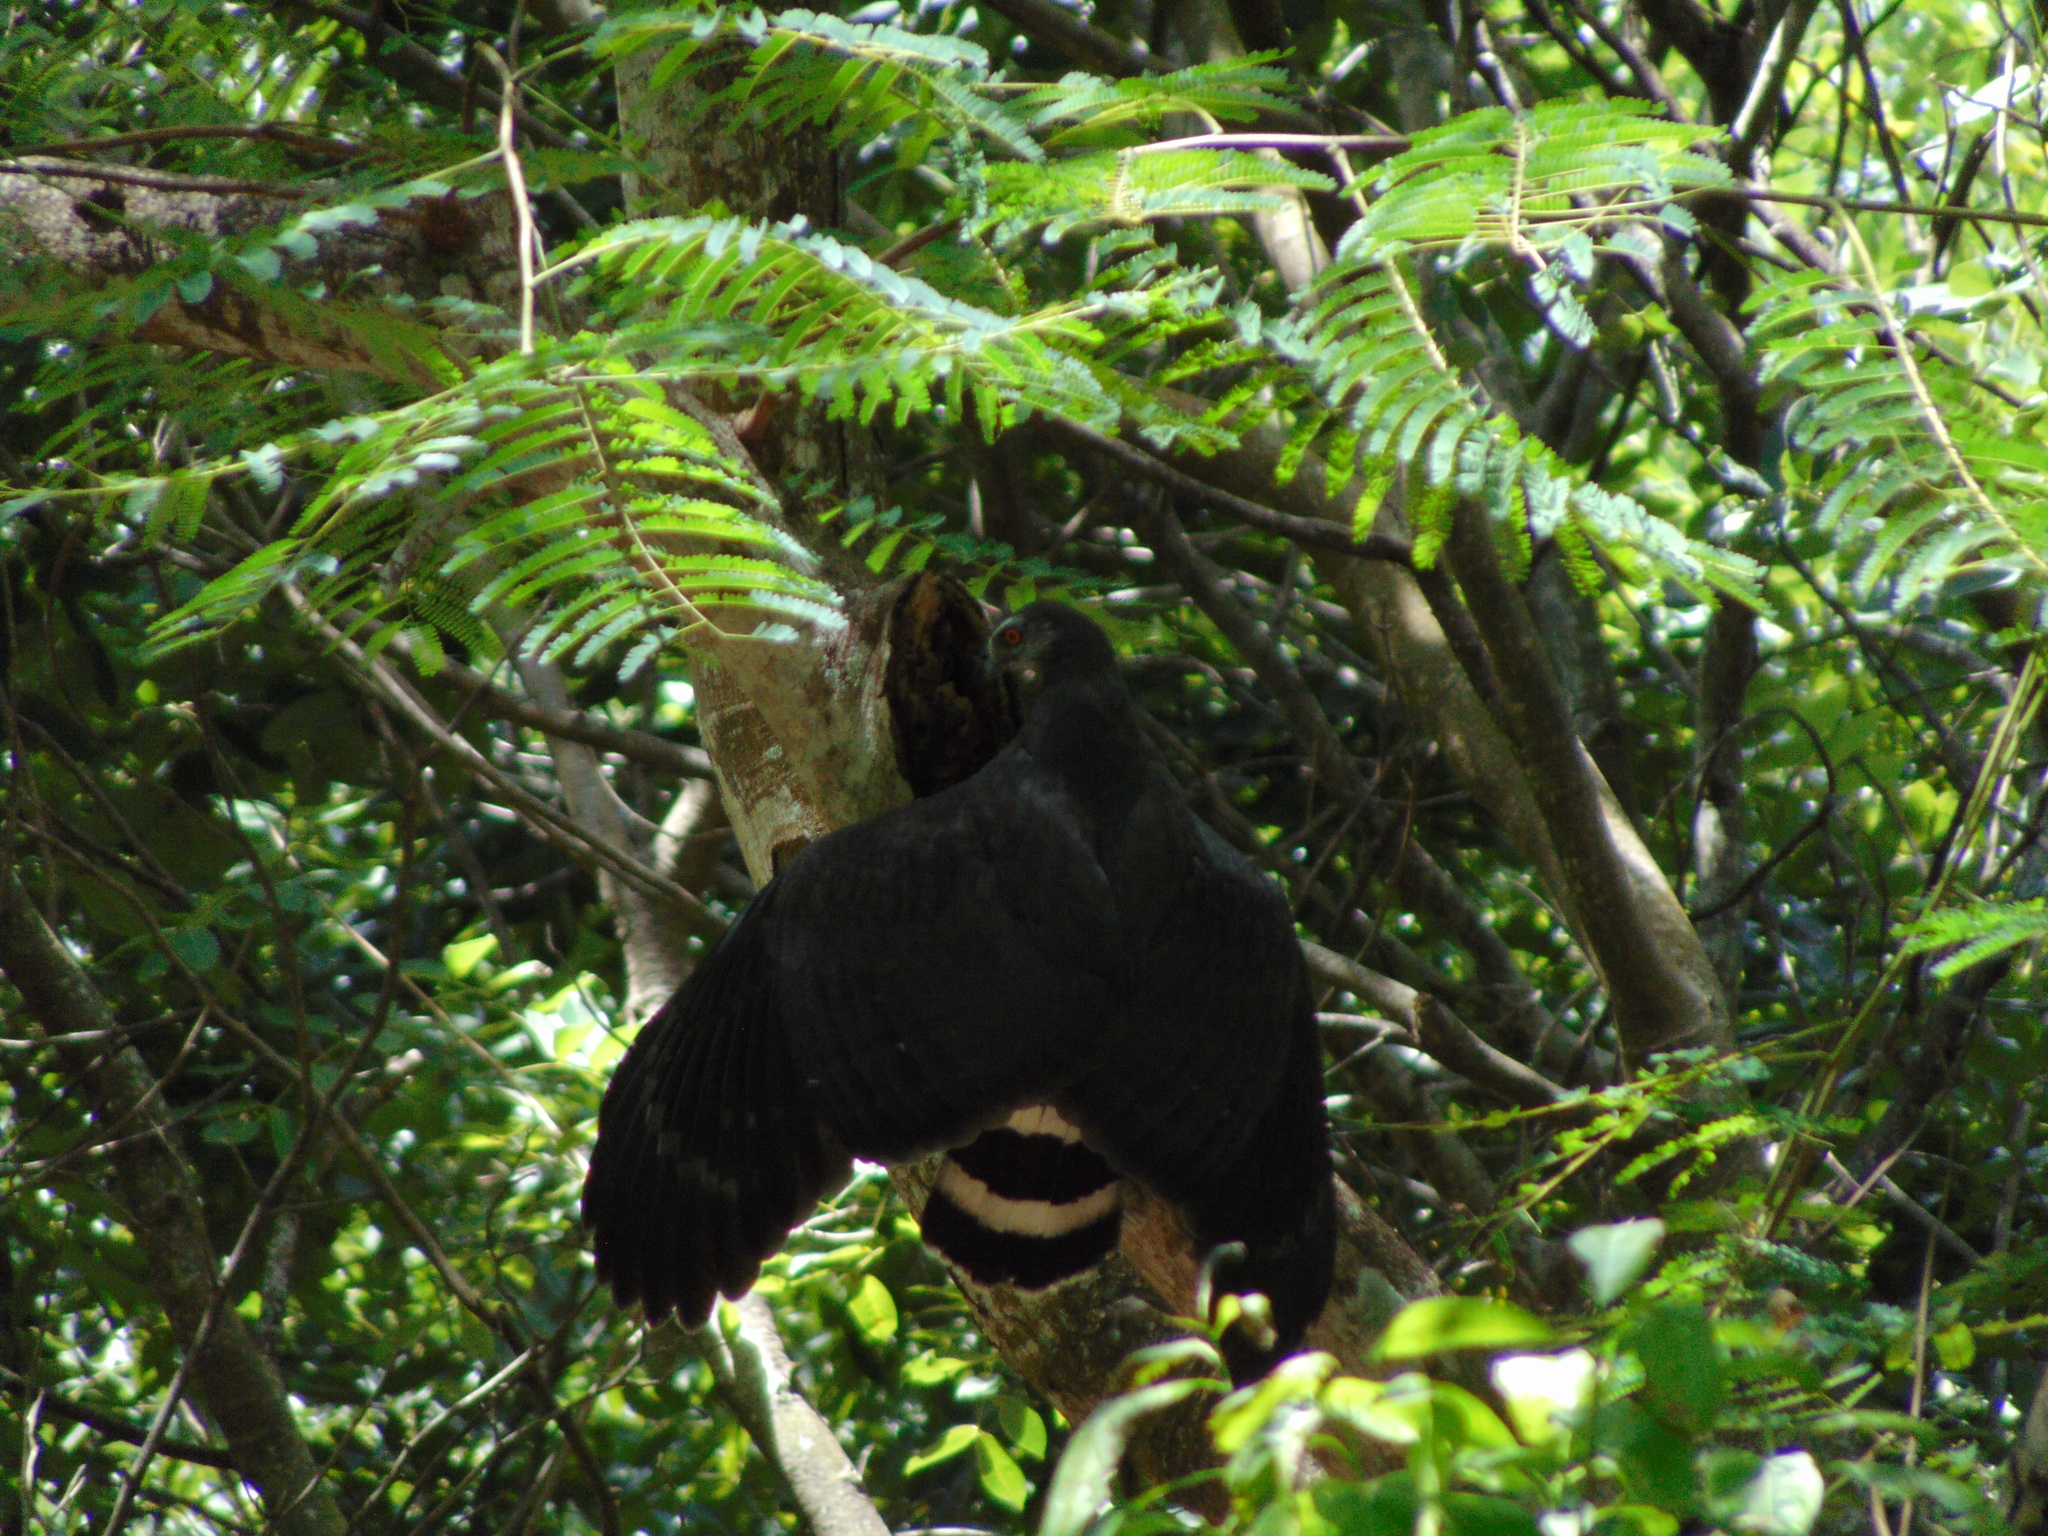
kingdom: Animalia
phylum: Chordata
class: Aves
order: Accipitriformes
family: Accipitridae
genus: Geranospiza
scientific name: Geranospiza caerulescens
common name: Crane hawk
